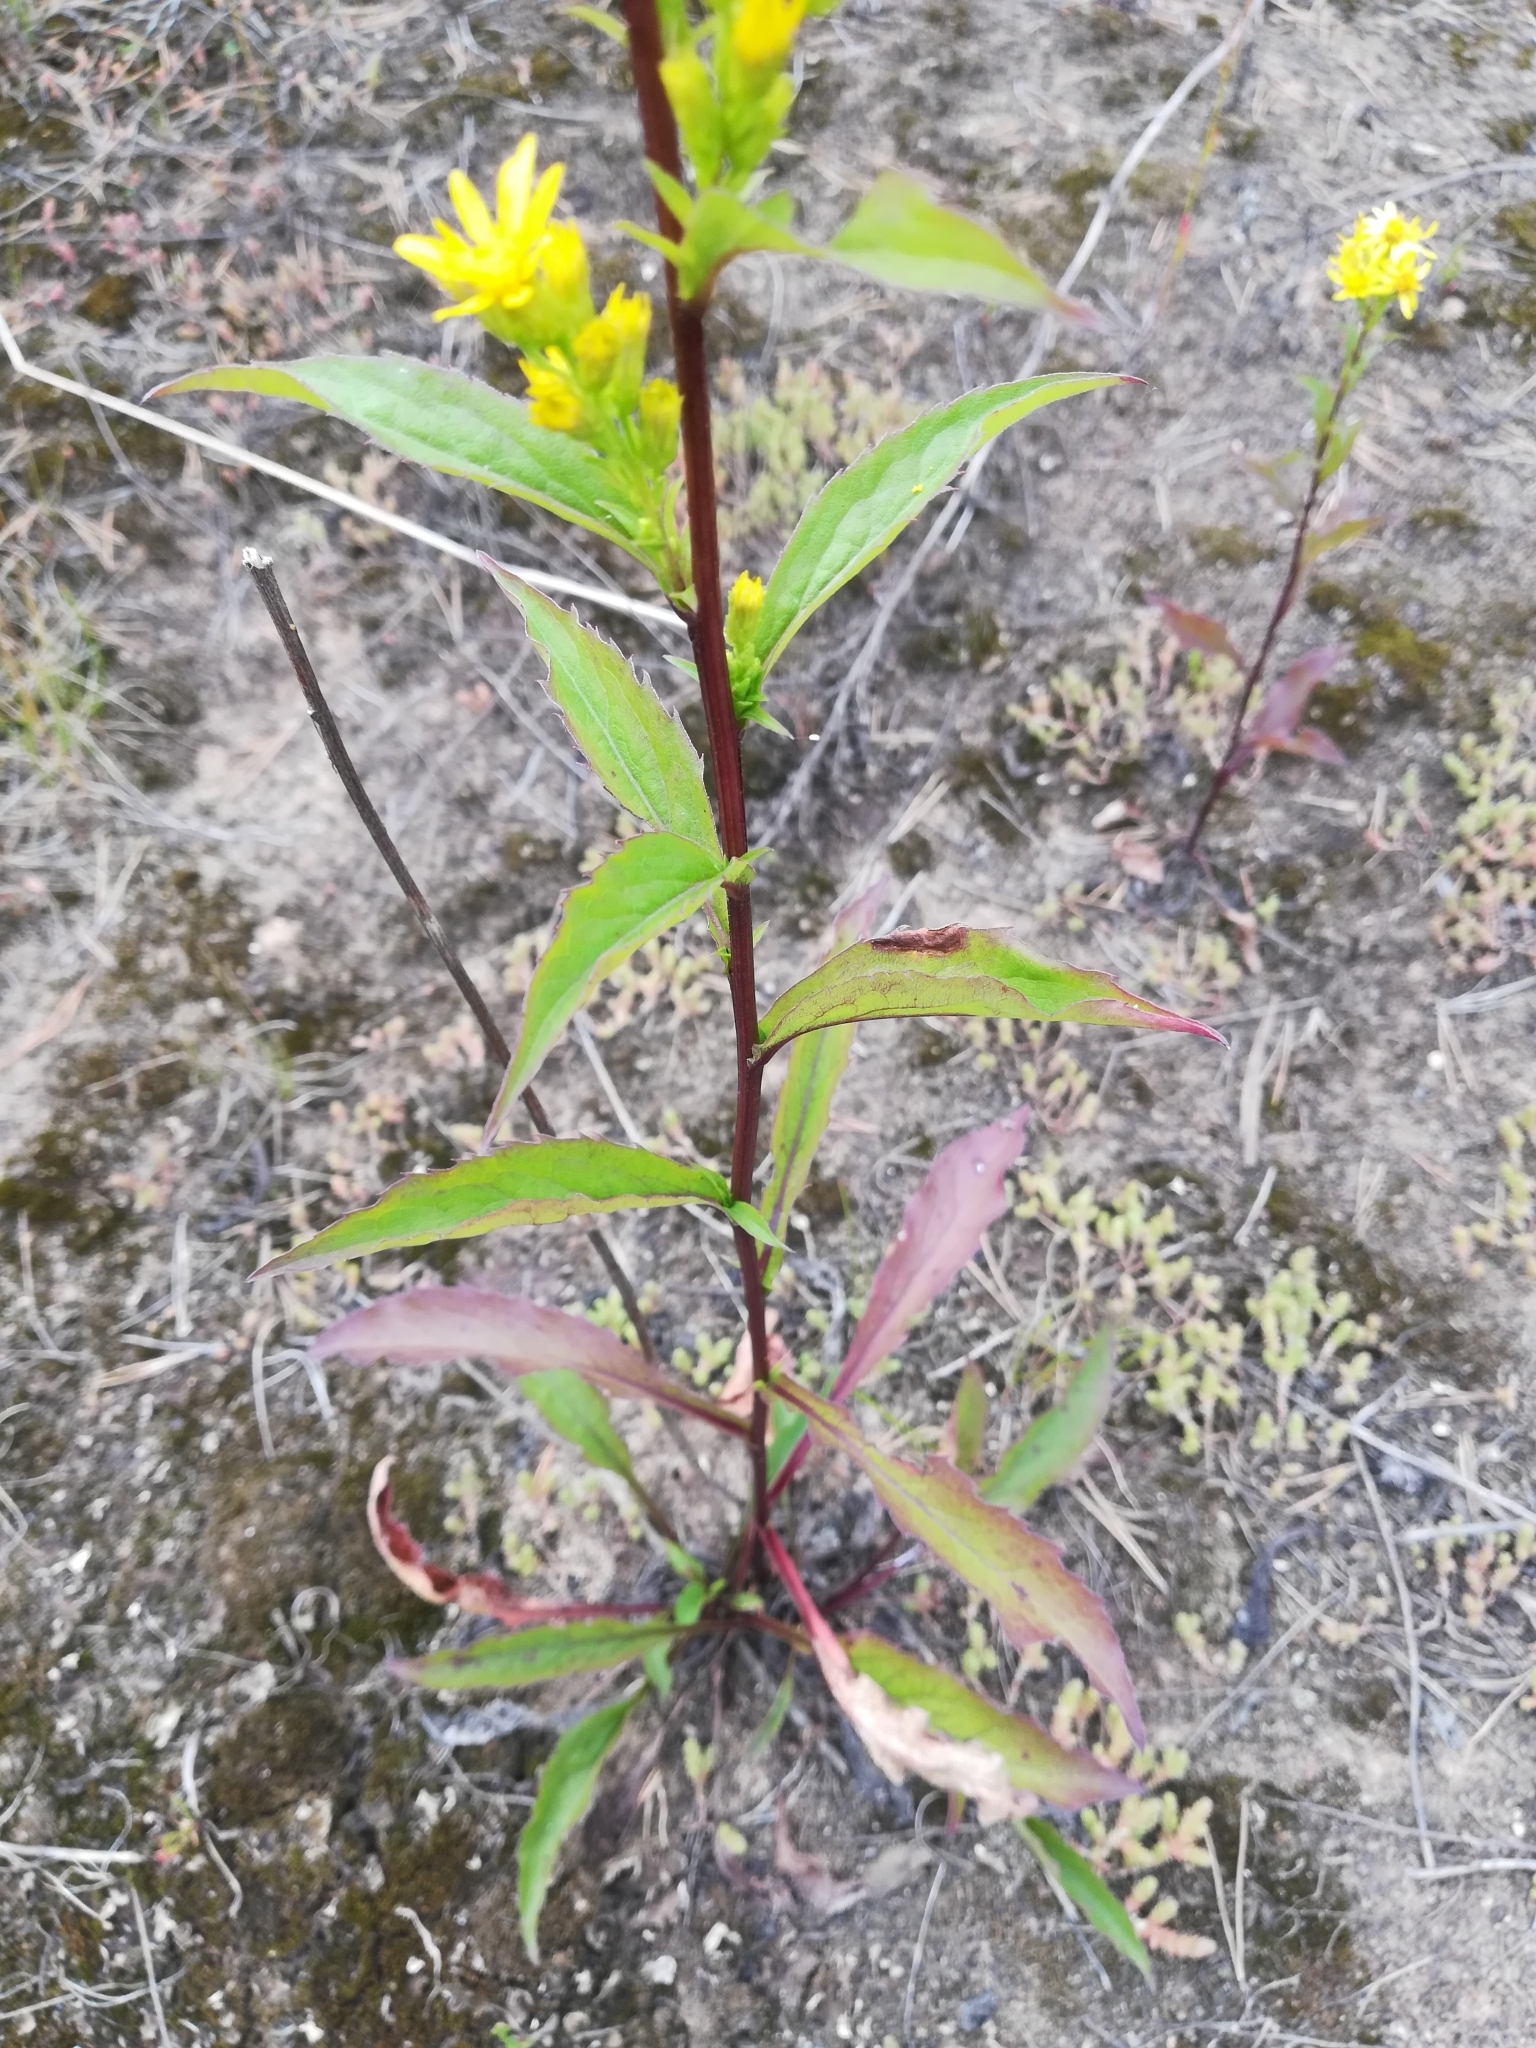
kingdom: Plantae
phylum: Tracheophyta
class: Magnoliopsida
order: Asterales
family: Asteraceae
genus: Solidago
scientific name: Solidago virgaurea
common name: Goldenrod
